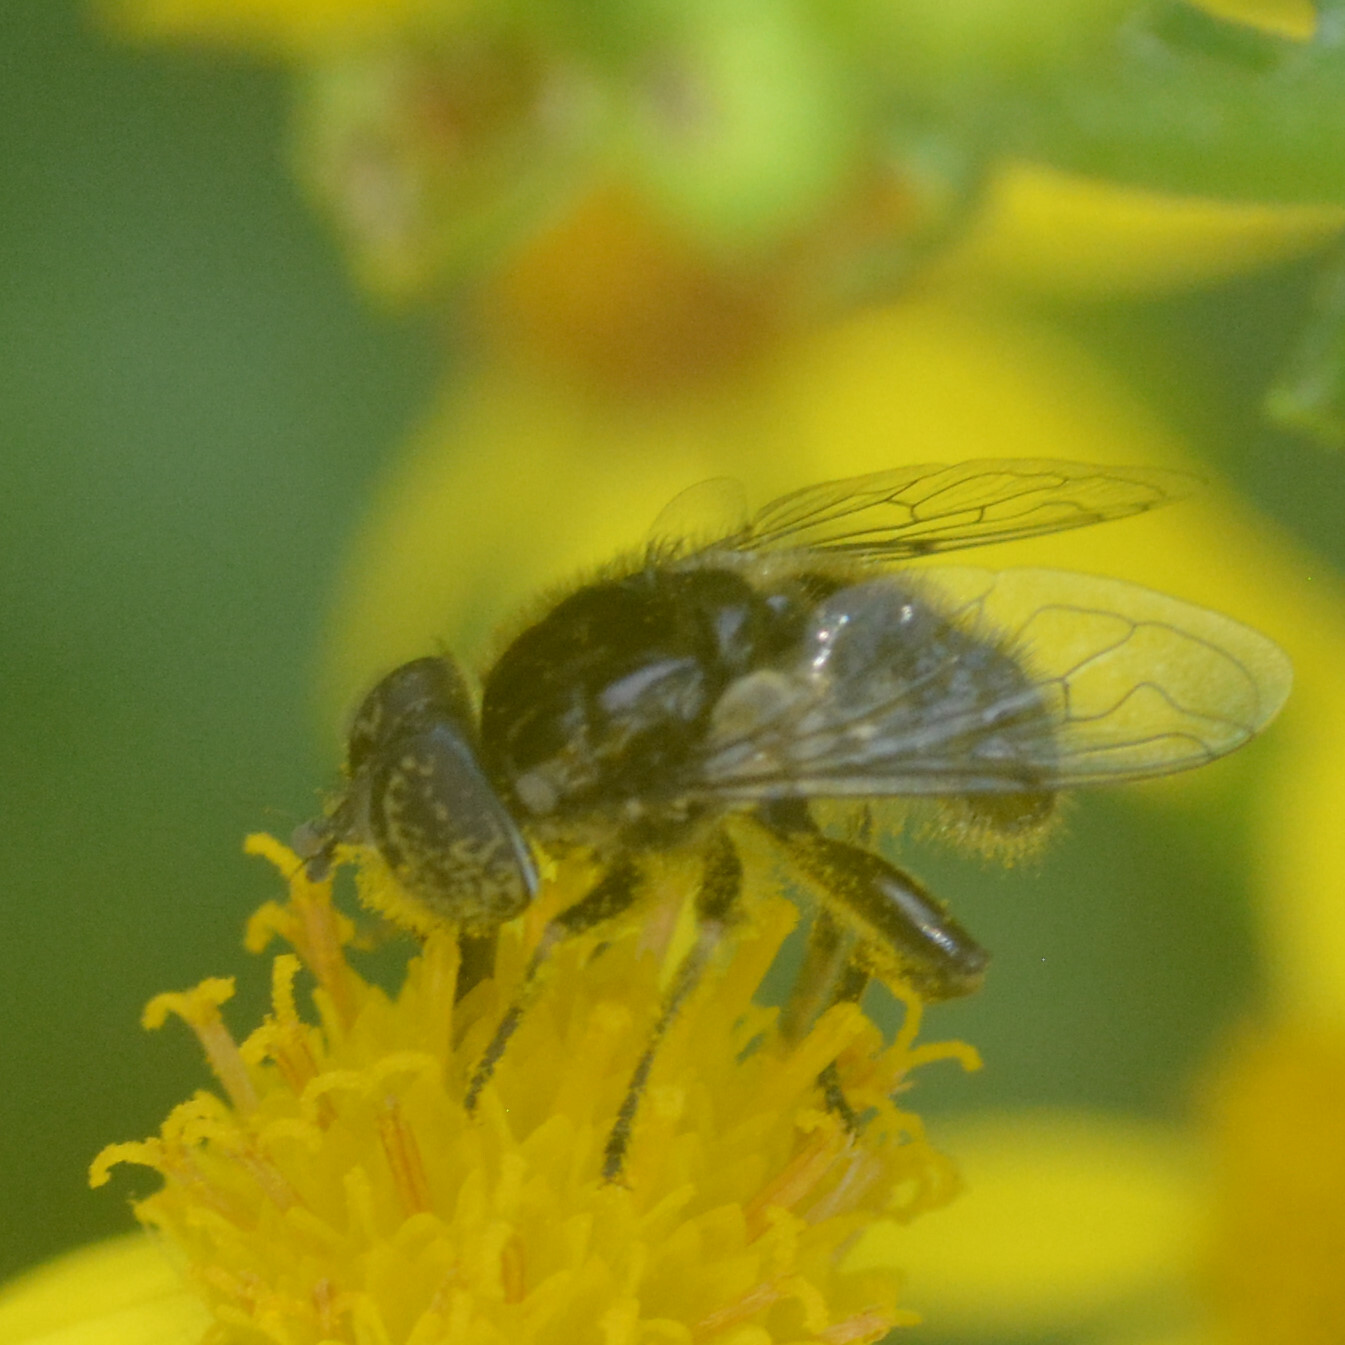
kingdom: Animalia
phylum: Arthropoda
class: Insecta
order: Diptera
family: Syrphidae
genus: Eristalinus
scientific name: Eristalinus sepulchralis
